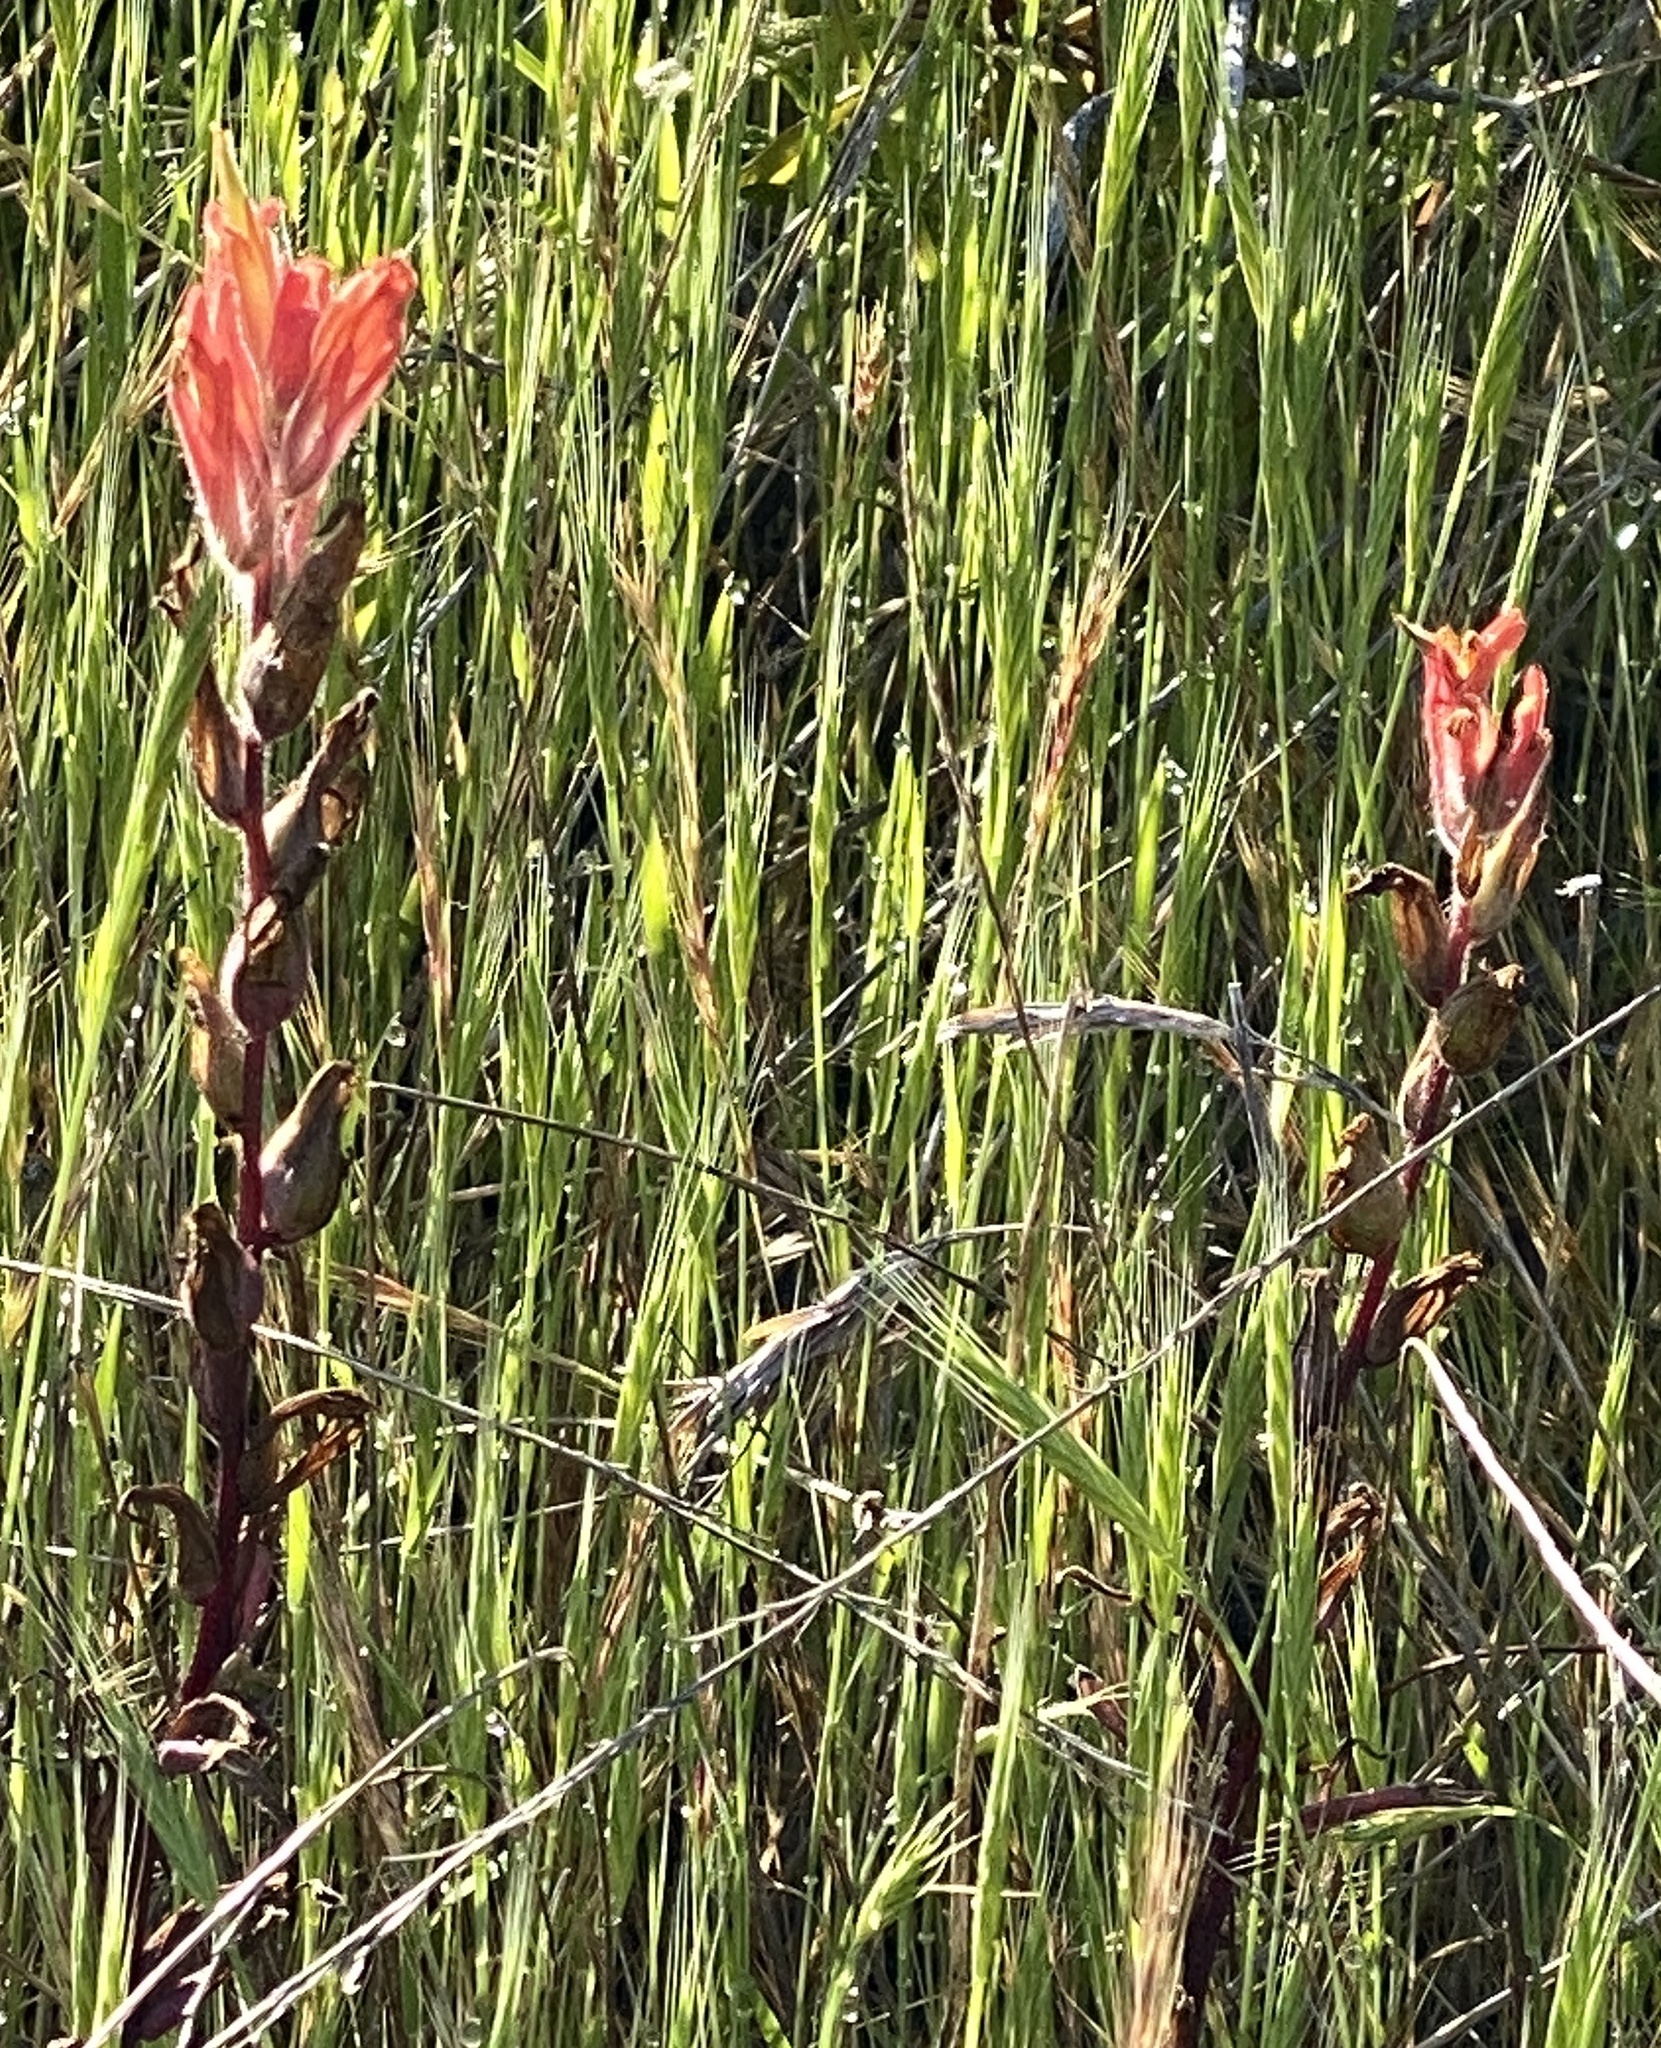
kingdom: Plantae
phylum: Tracheophyta
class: Magnoliopsida
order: Lamiales
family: Orobanchaceae
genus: Castilleja
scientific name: Castilleja affinis
